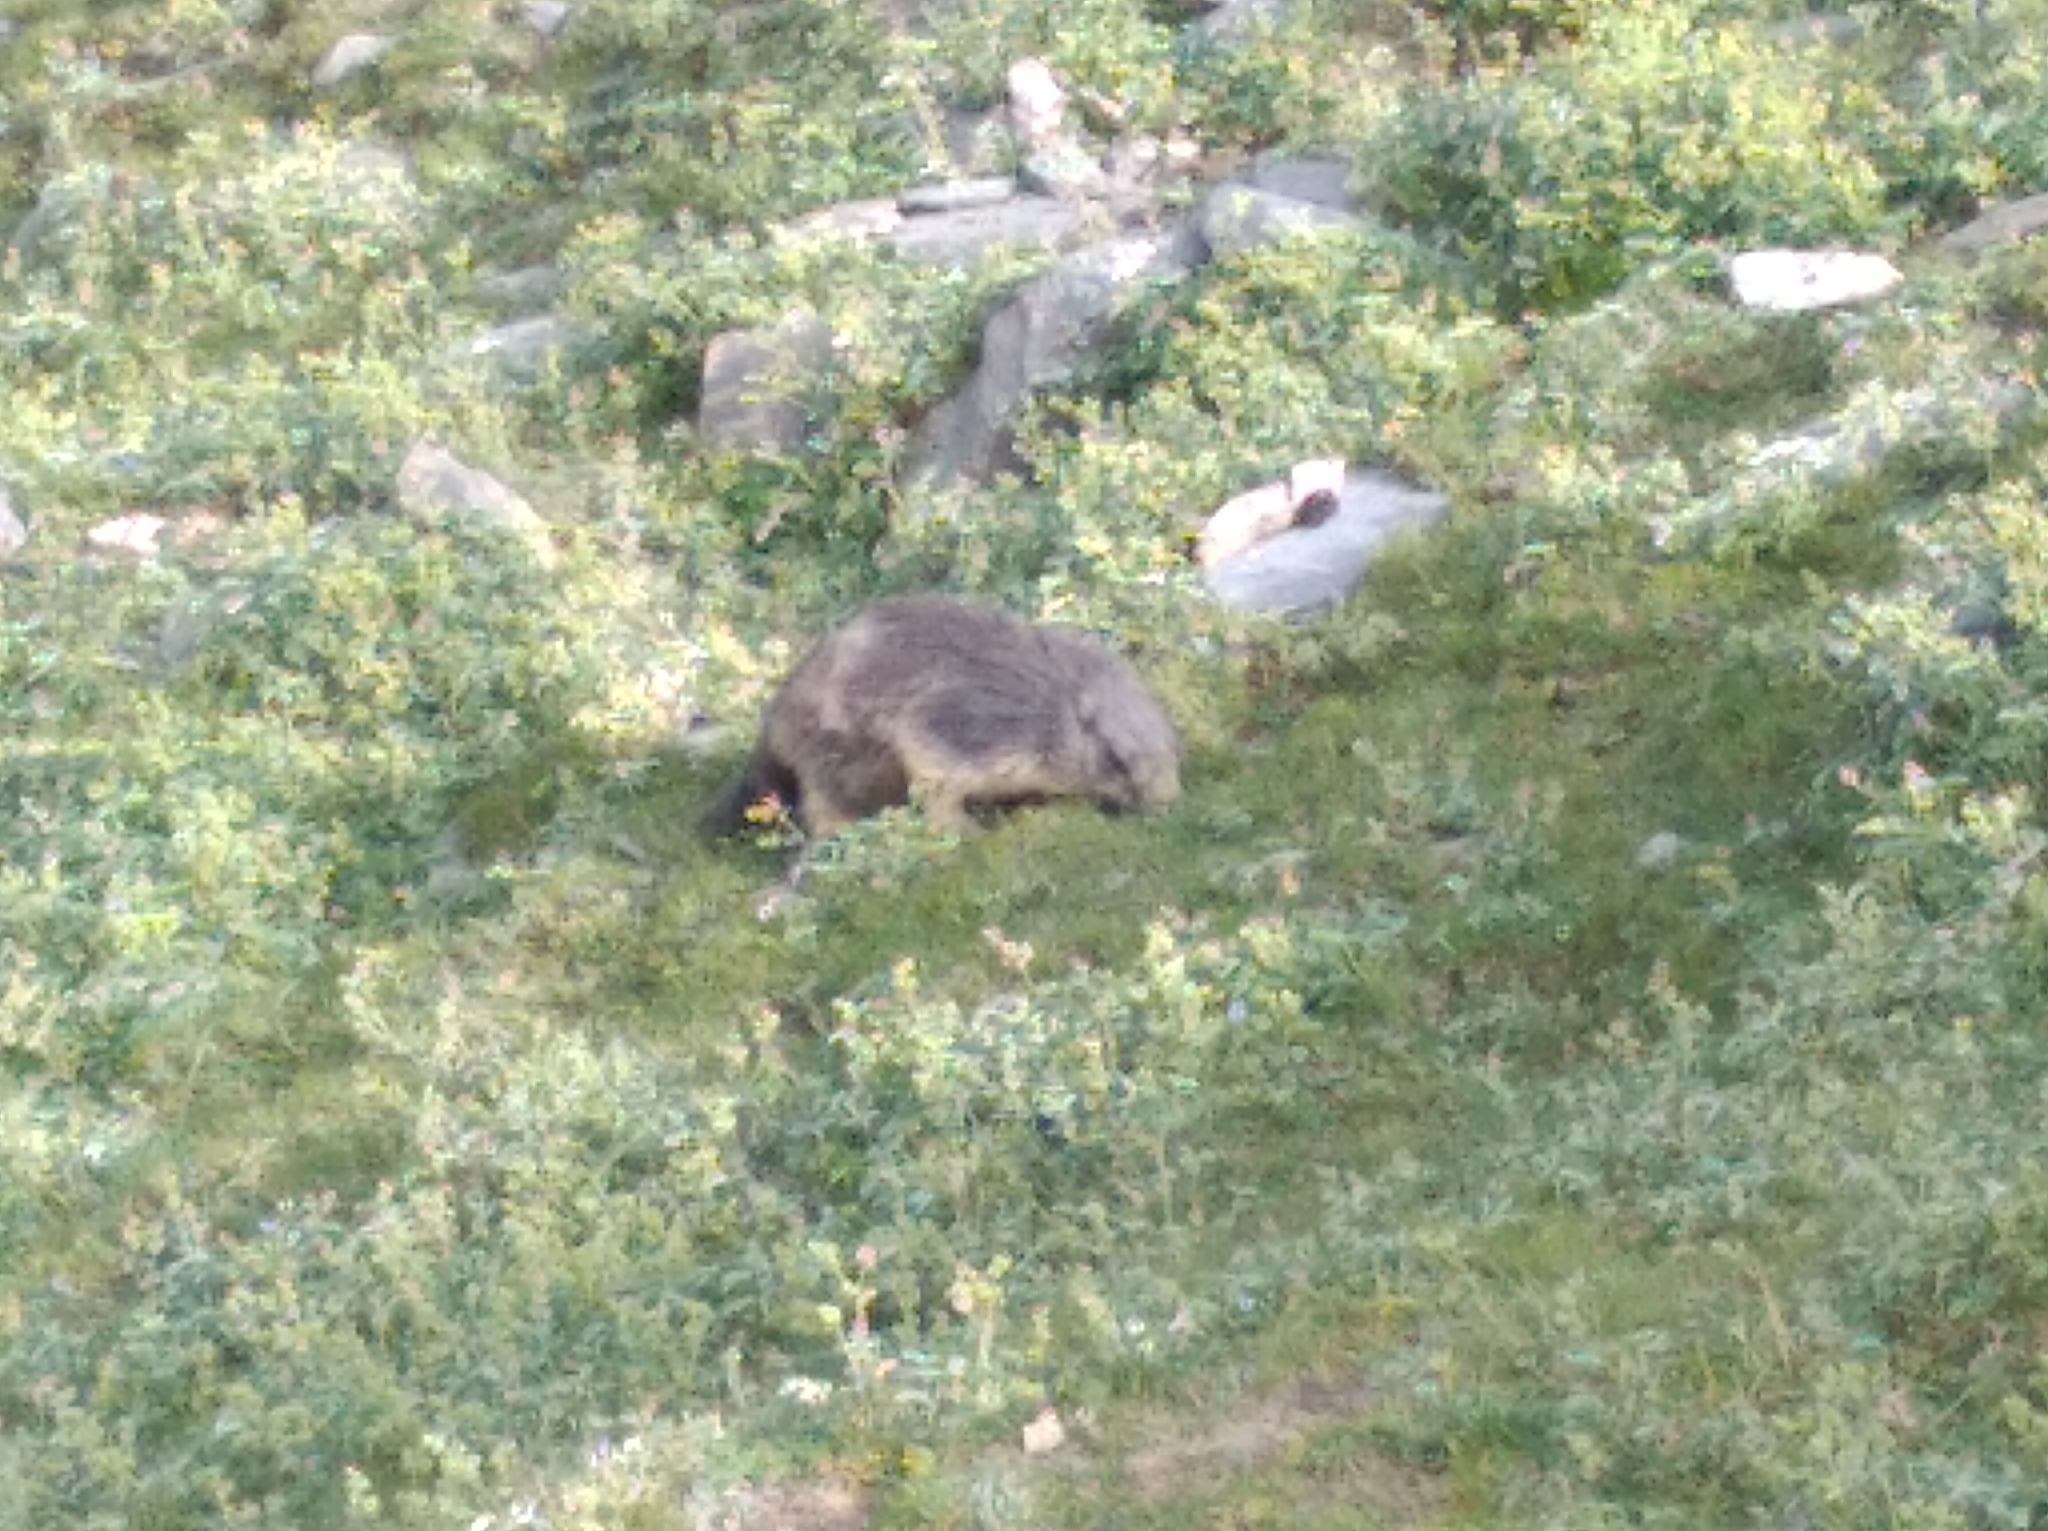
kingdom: Animalia
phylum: Chordata
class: Mammalia
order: Rodentia
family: Sciuridae
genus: Marmota
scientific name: Marmota marmota
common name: Alpine marmot
